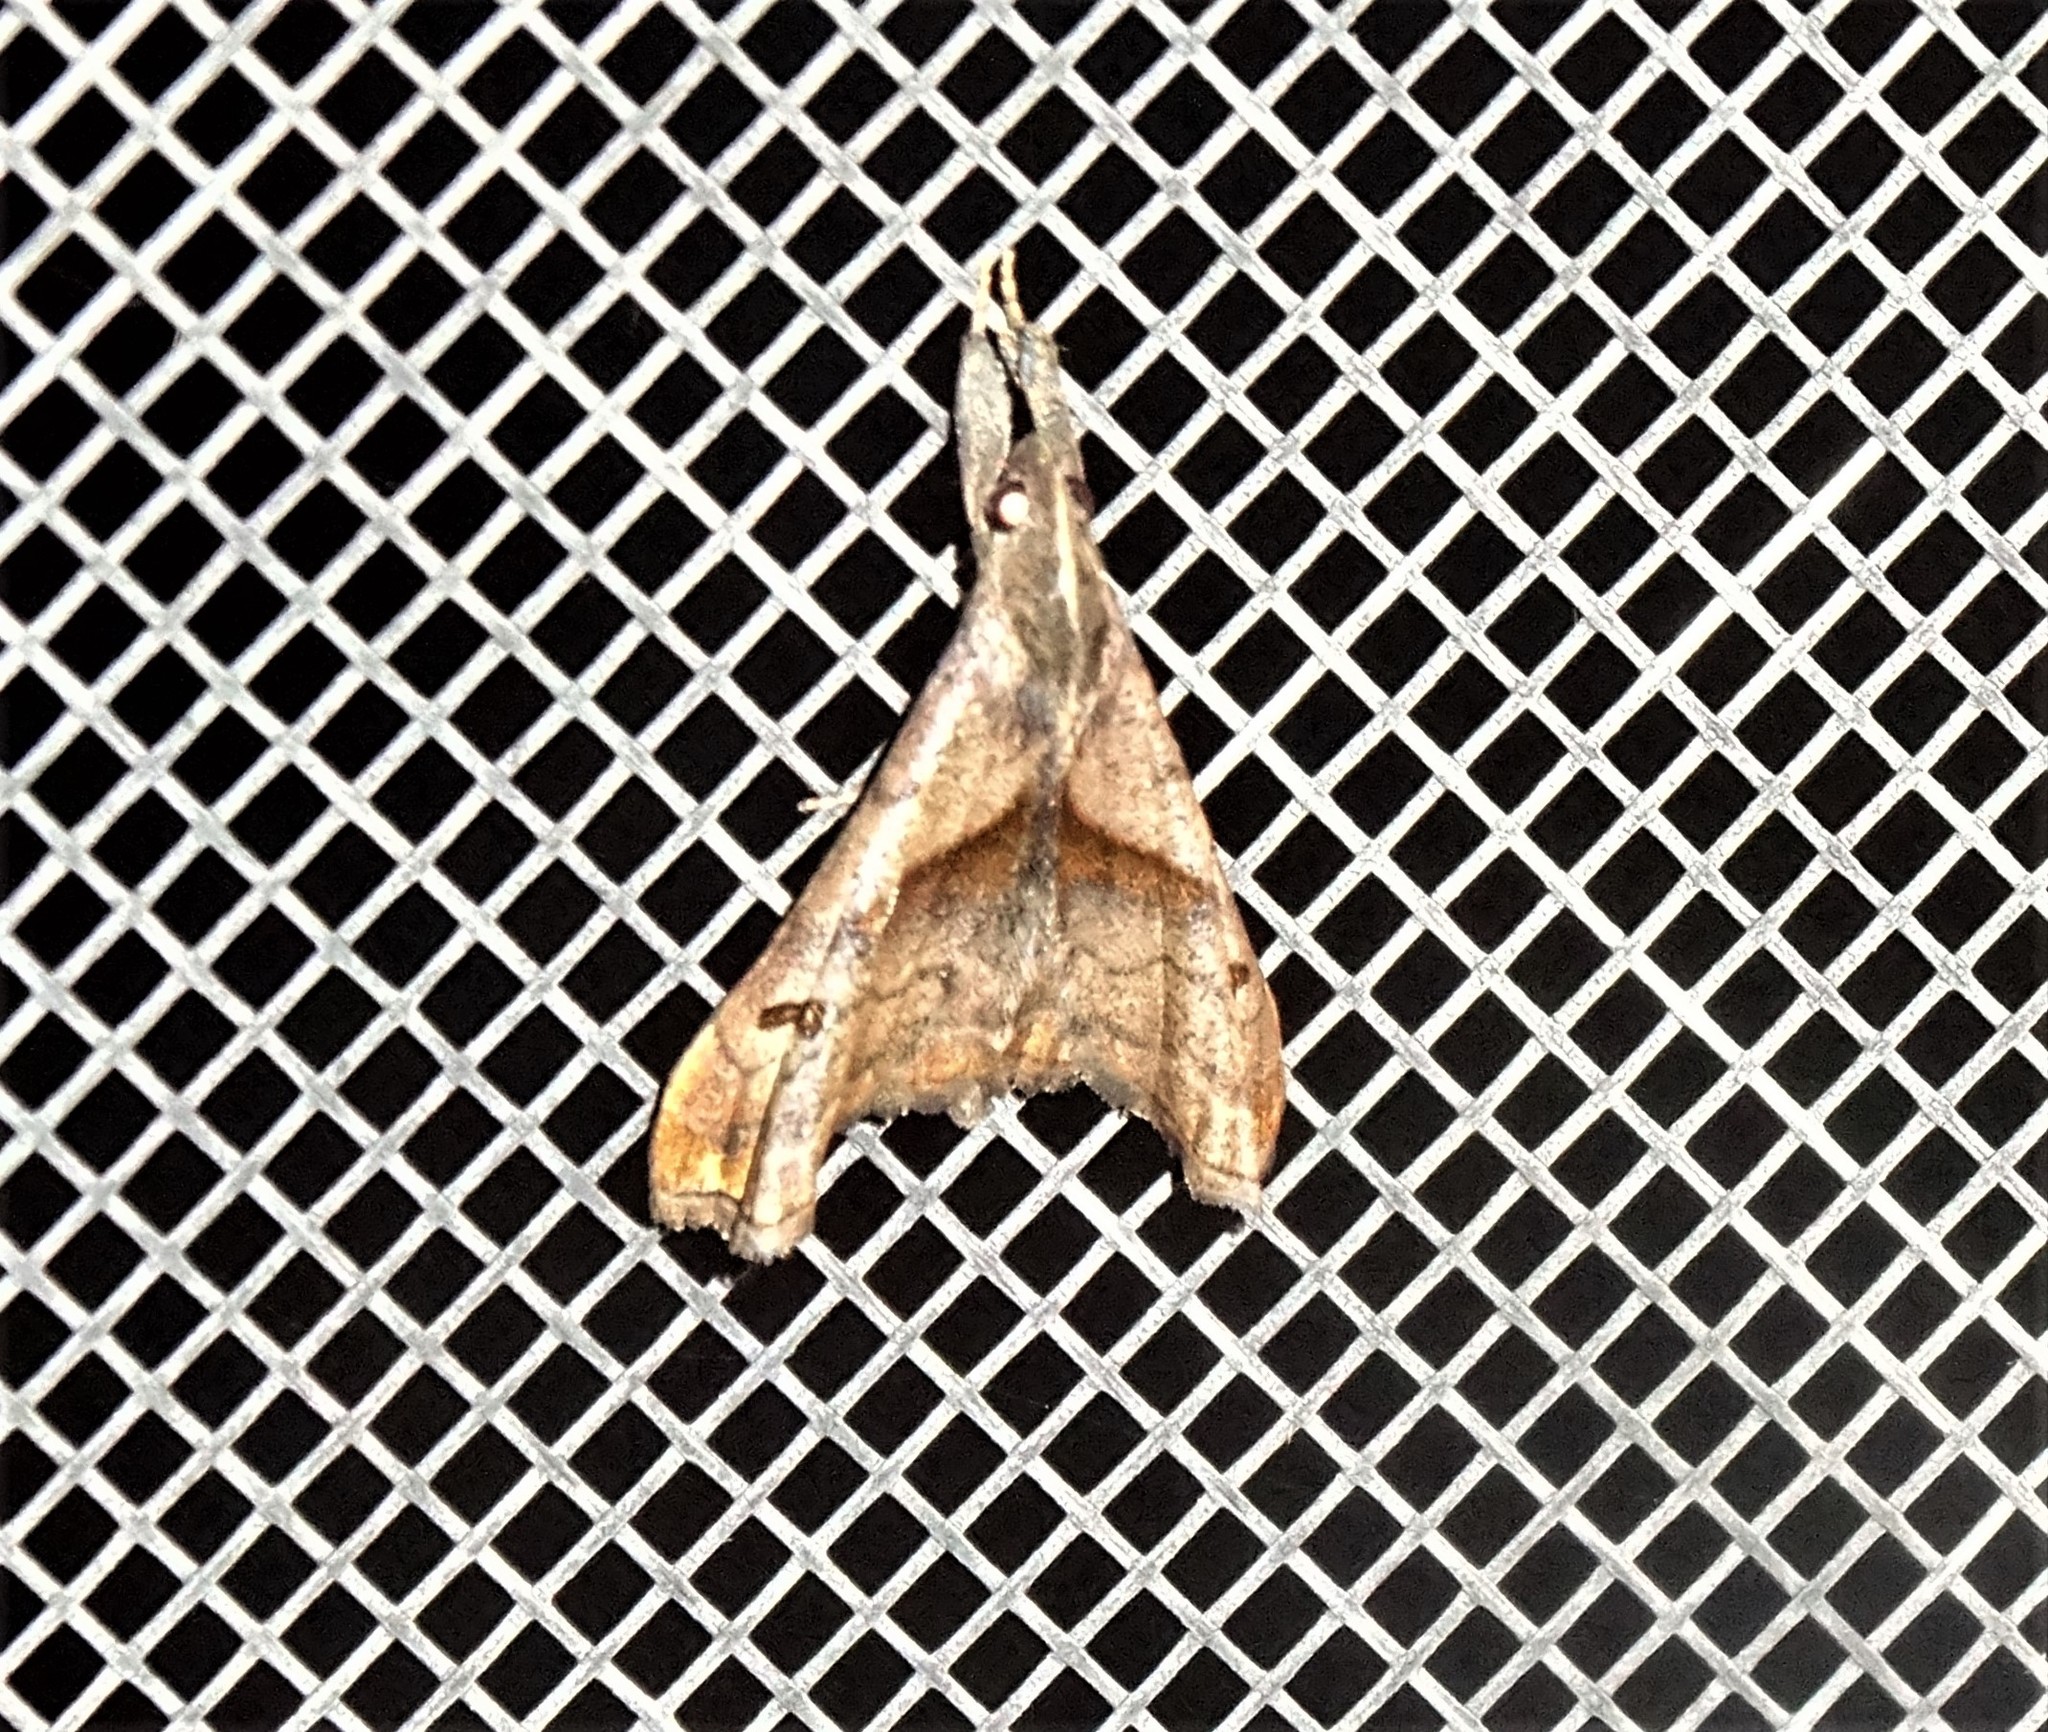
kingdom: Animalia
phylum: Arthropoda
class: Insecta
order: Lepidoptera
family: Erebidae
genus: Palthis
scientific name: Palthis angulalis
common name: Dark-spotted palthis moth
